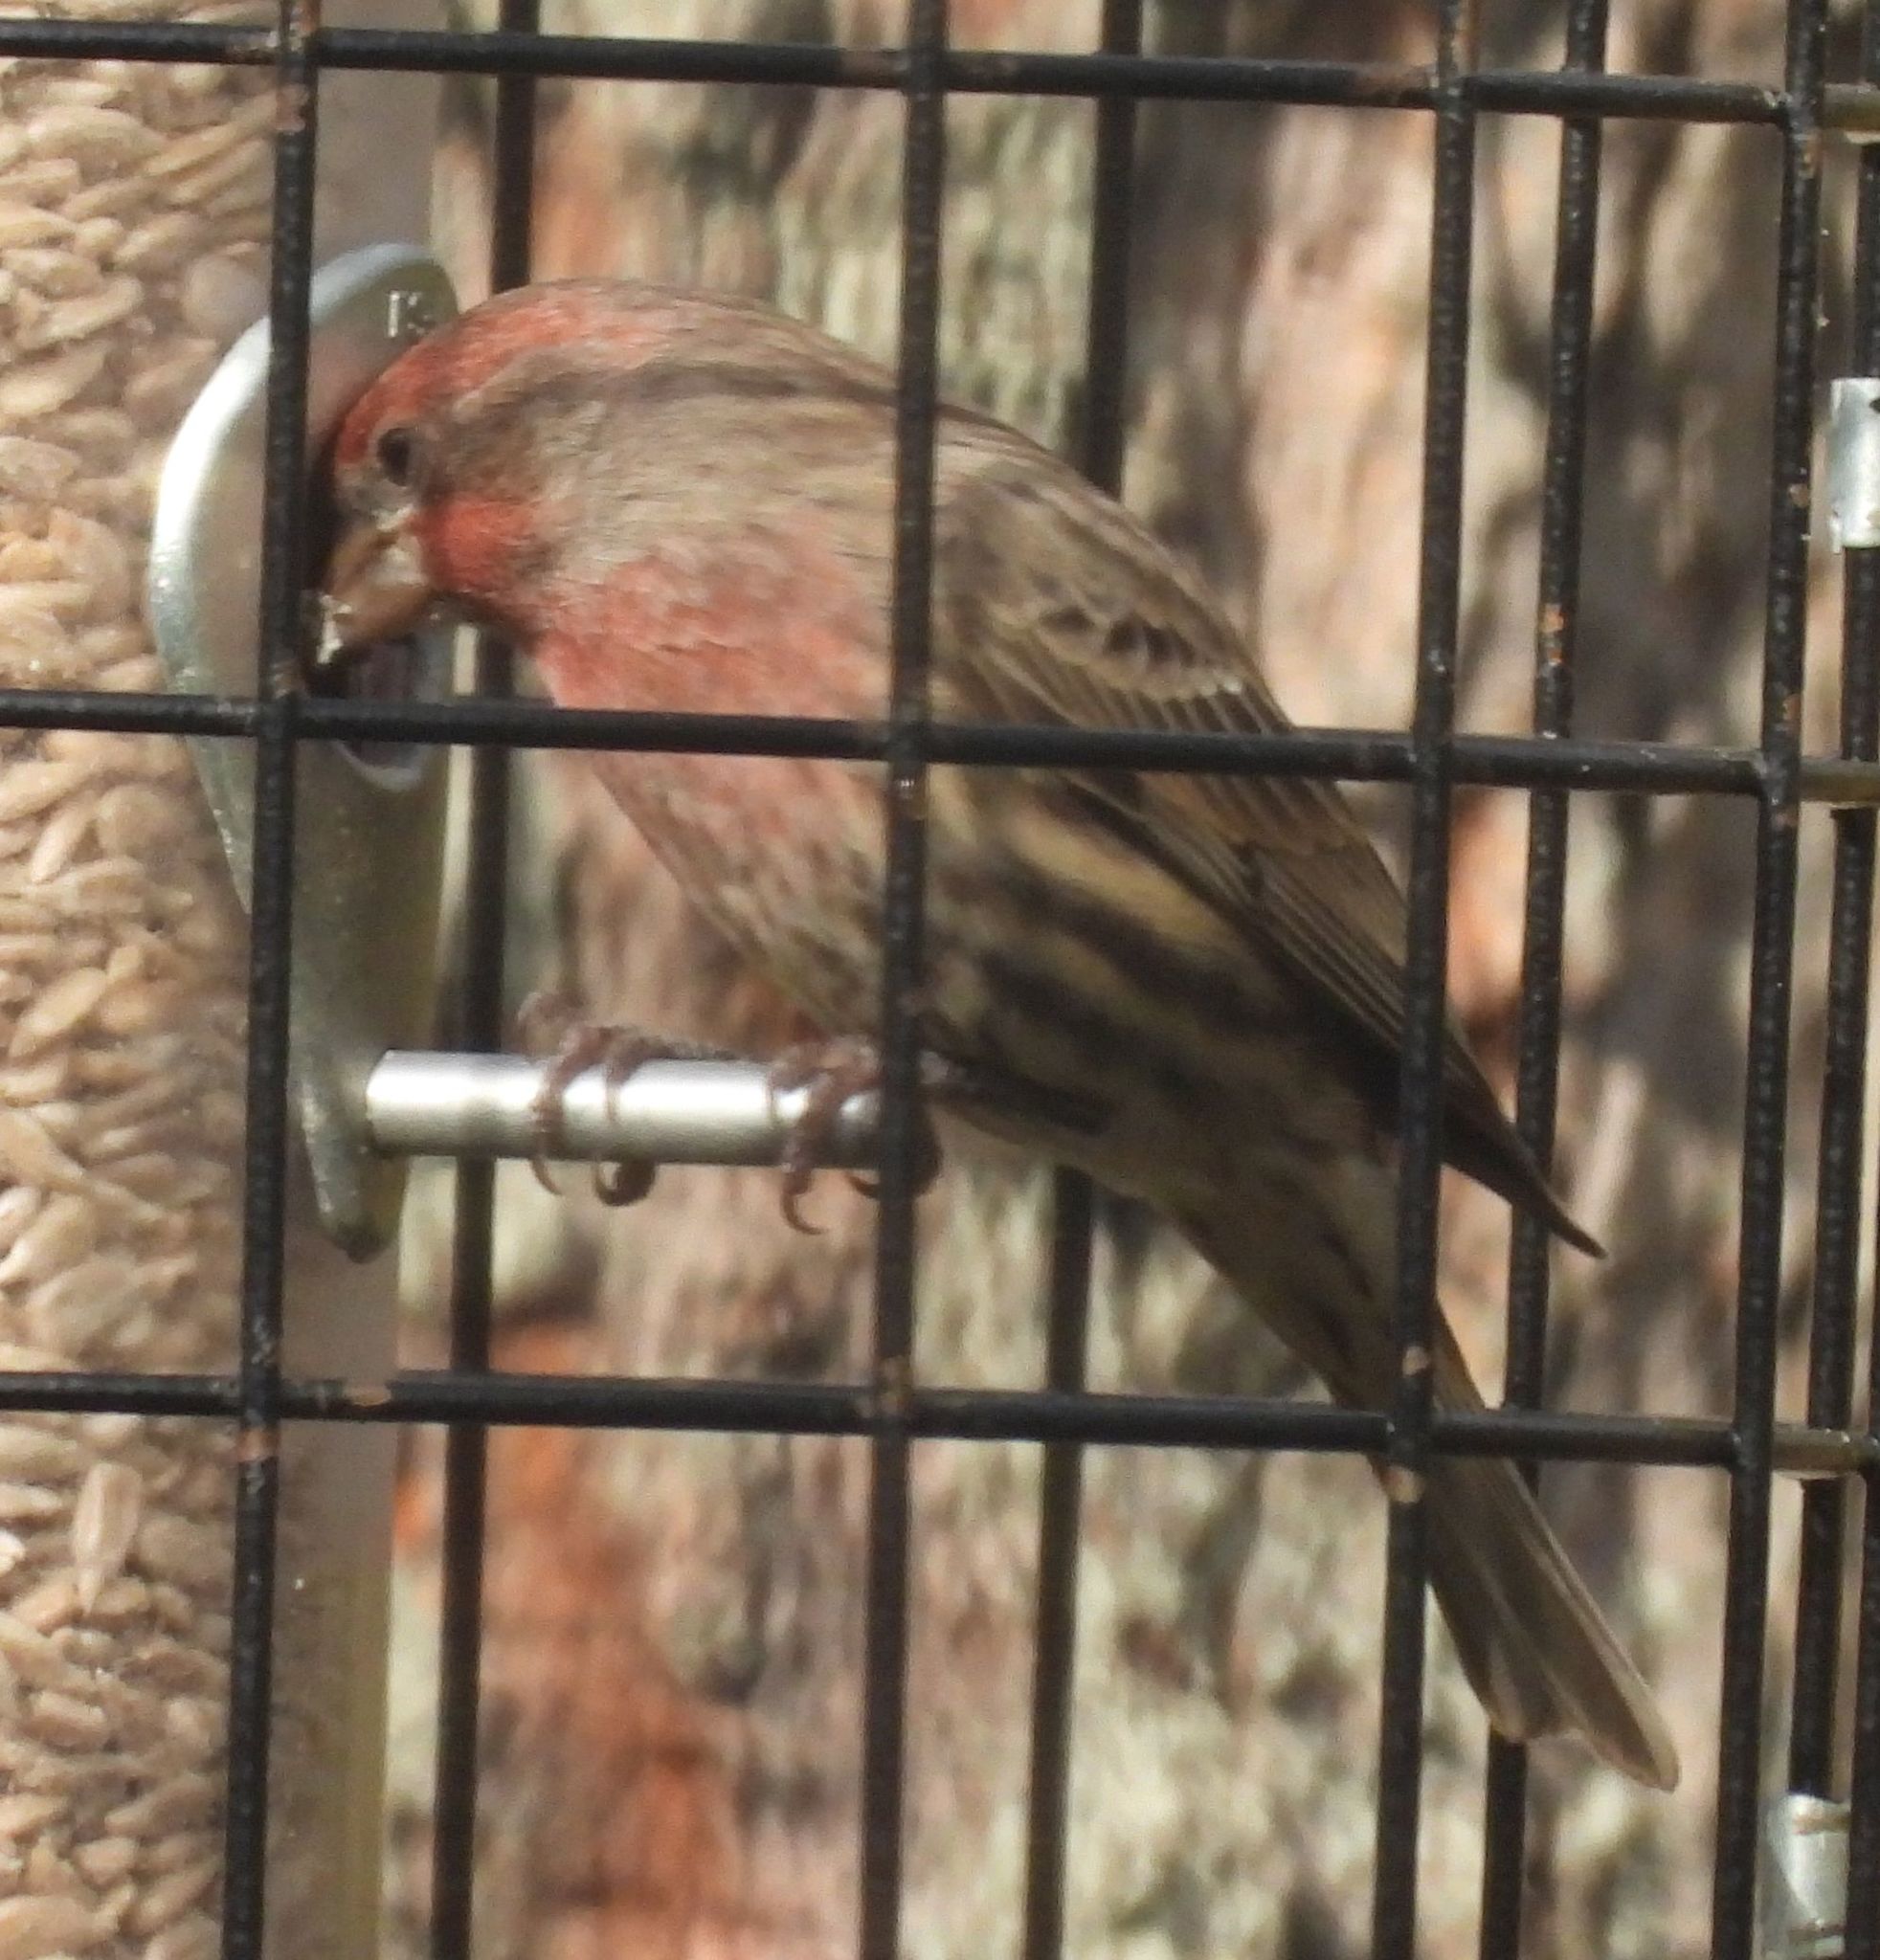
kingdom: Animalia
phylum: Chordata
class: Aves
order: Passeriformes
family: Fringillidae
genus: Haemorhous
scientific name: Haemorhous mexicanus
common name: House finch
